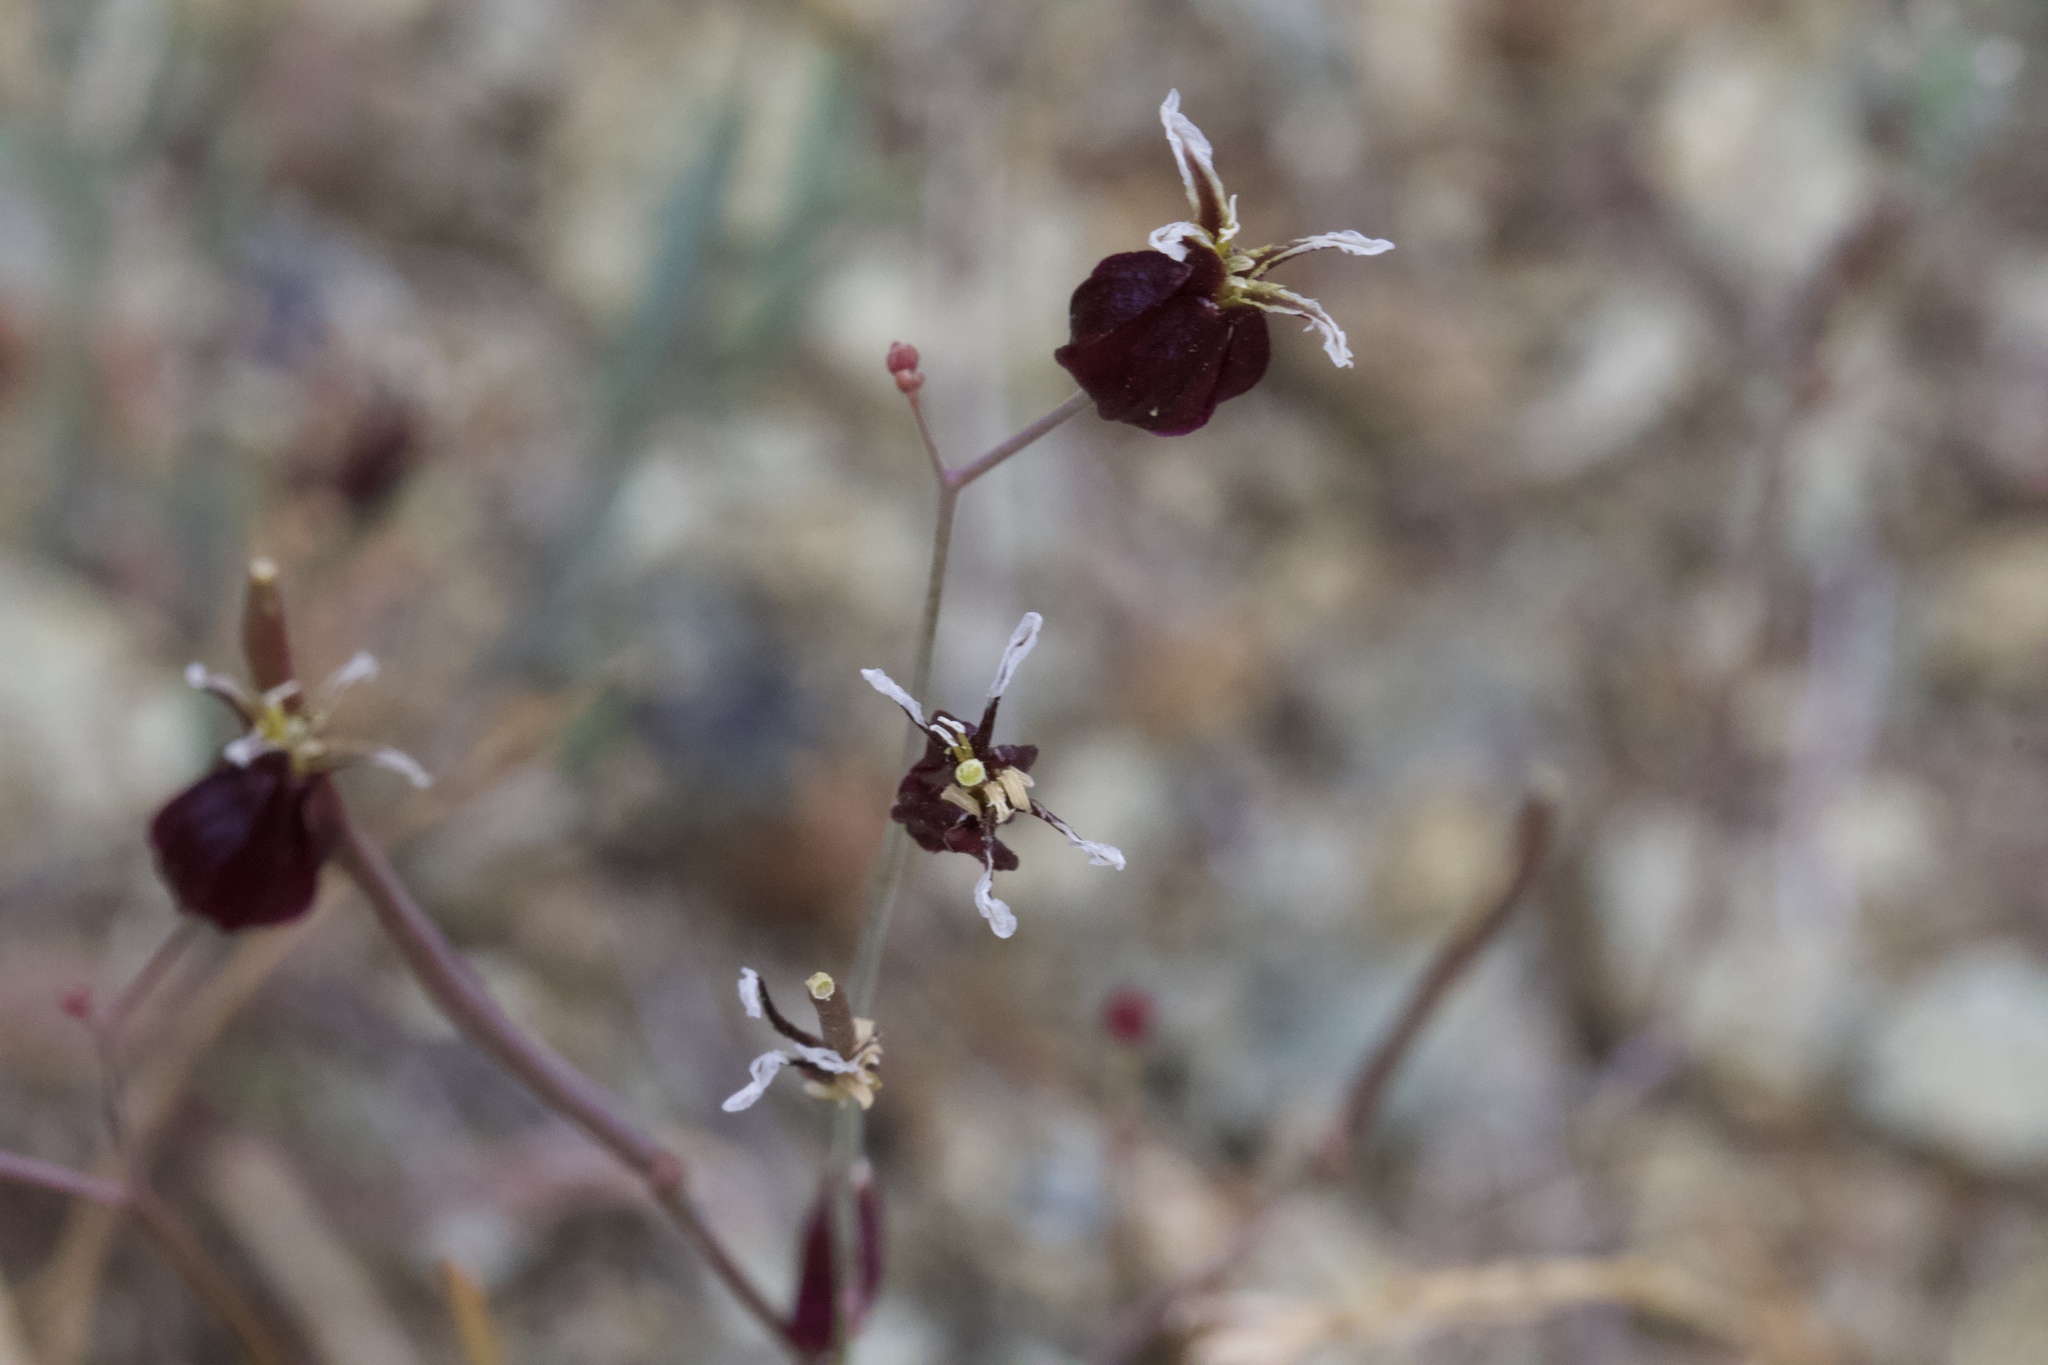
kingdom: Plantae
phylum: Tracheophyta
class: Magnoliopsida
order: Brassicales
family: Brassicaceae
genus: Streptanthus
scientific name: Streptanthus glandulosus
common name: Jewel-flower
